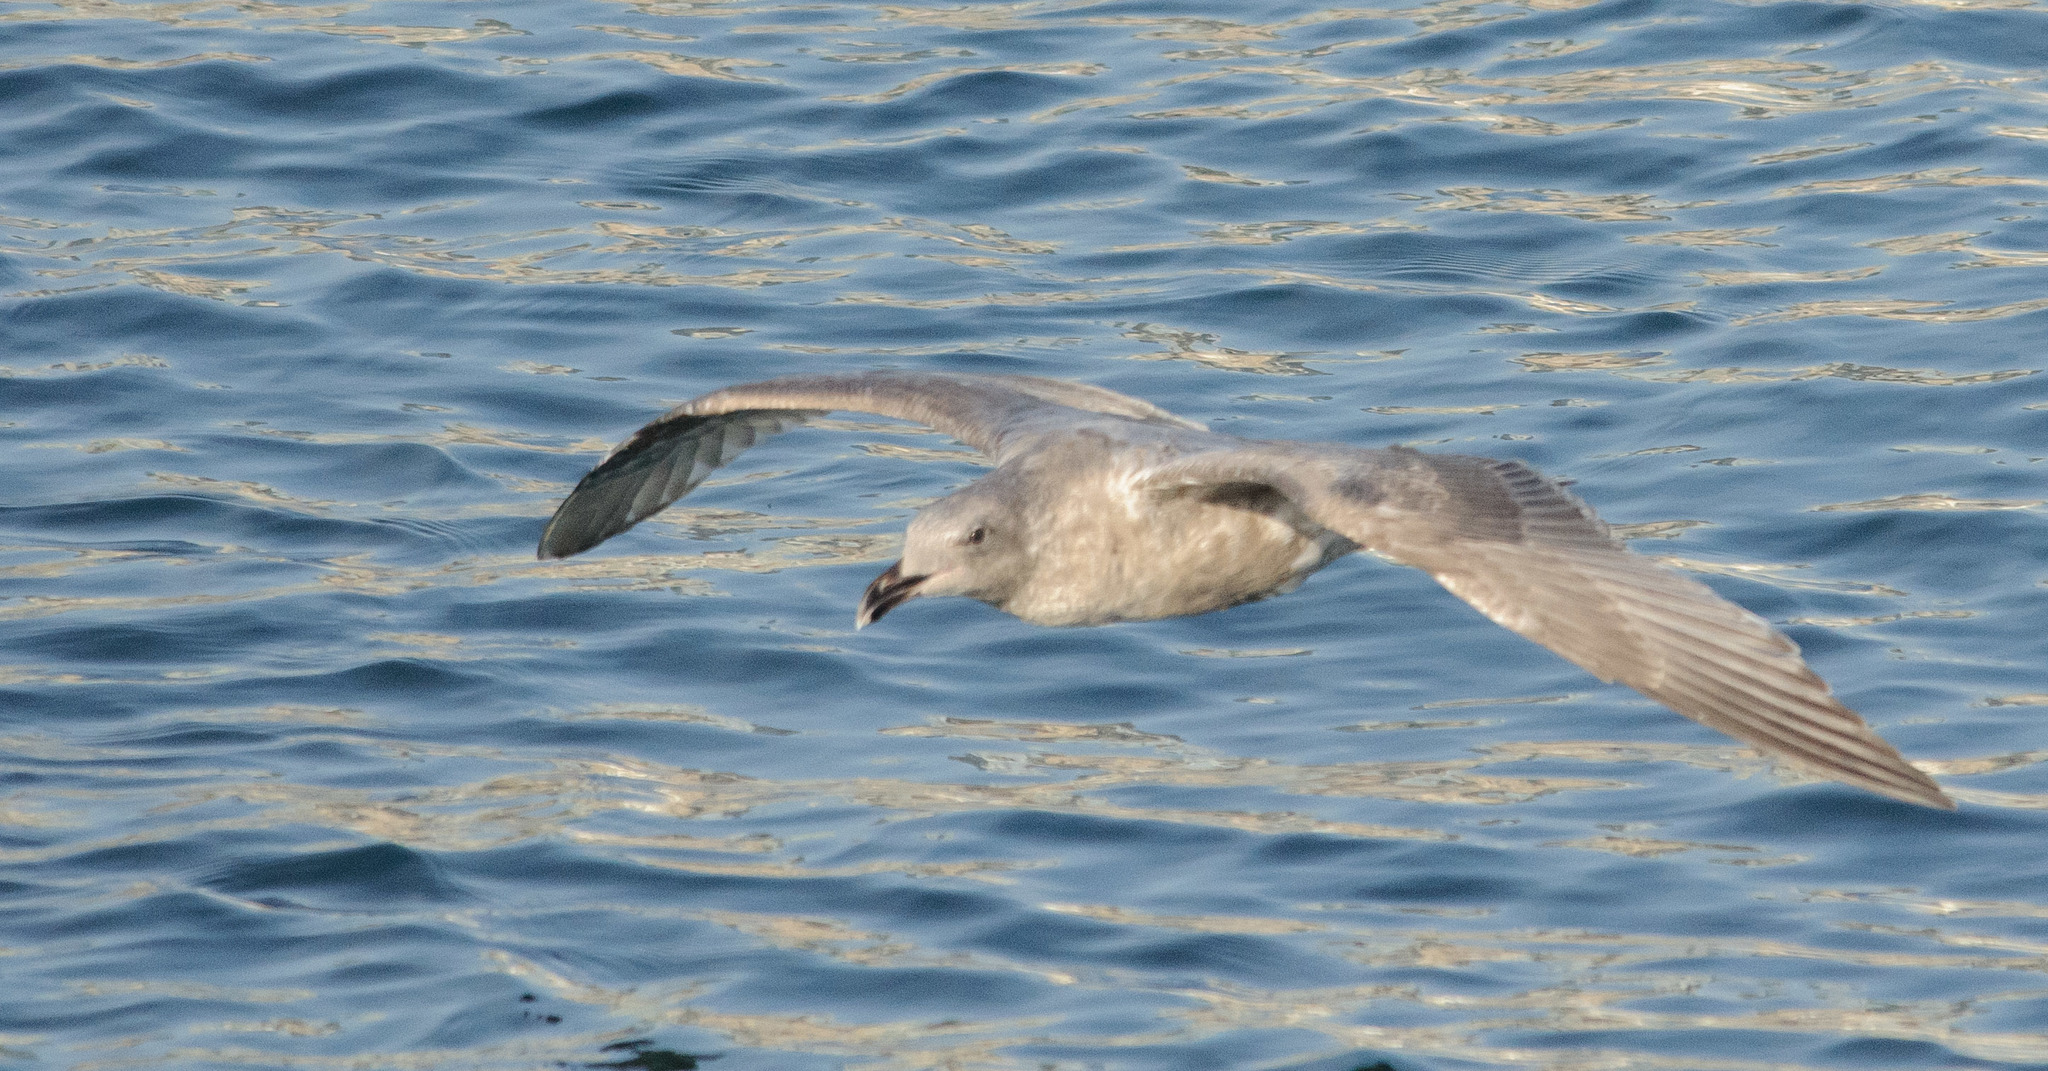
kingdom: Animalia
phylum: Chordata
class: Aves
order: Charadriiformes
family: Laridae
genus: Larus
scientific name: Larus
